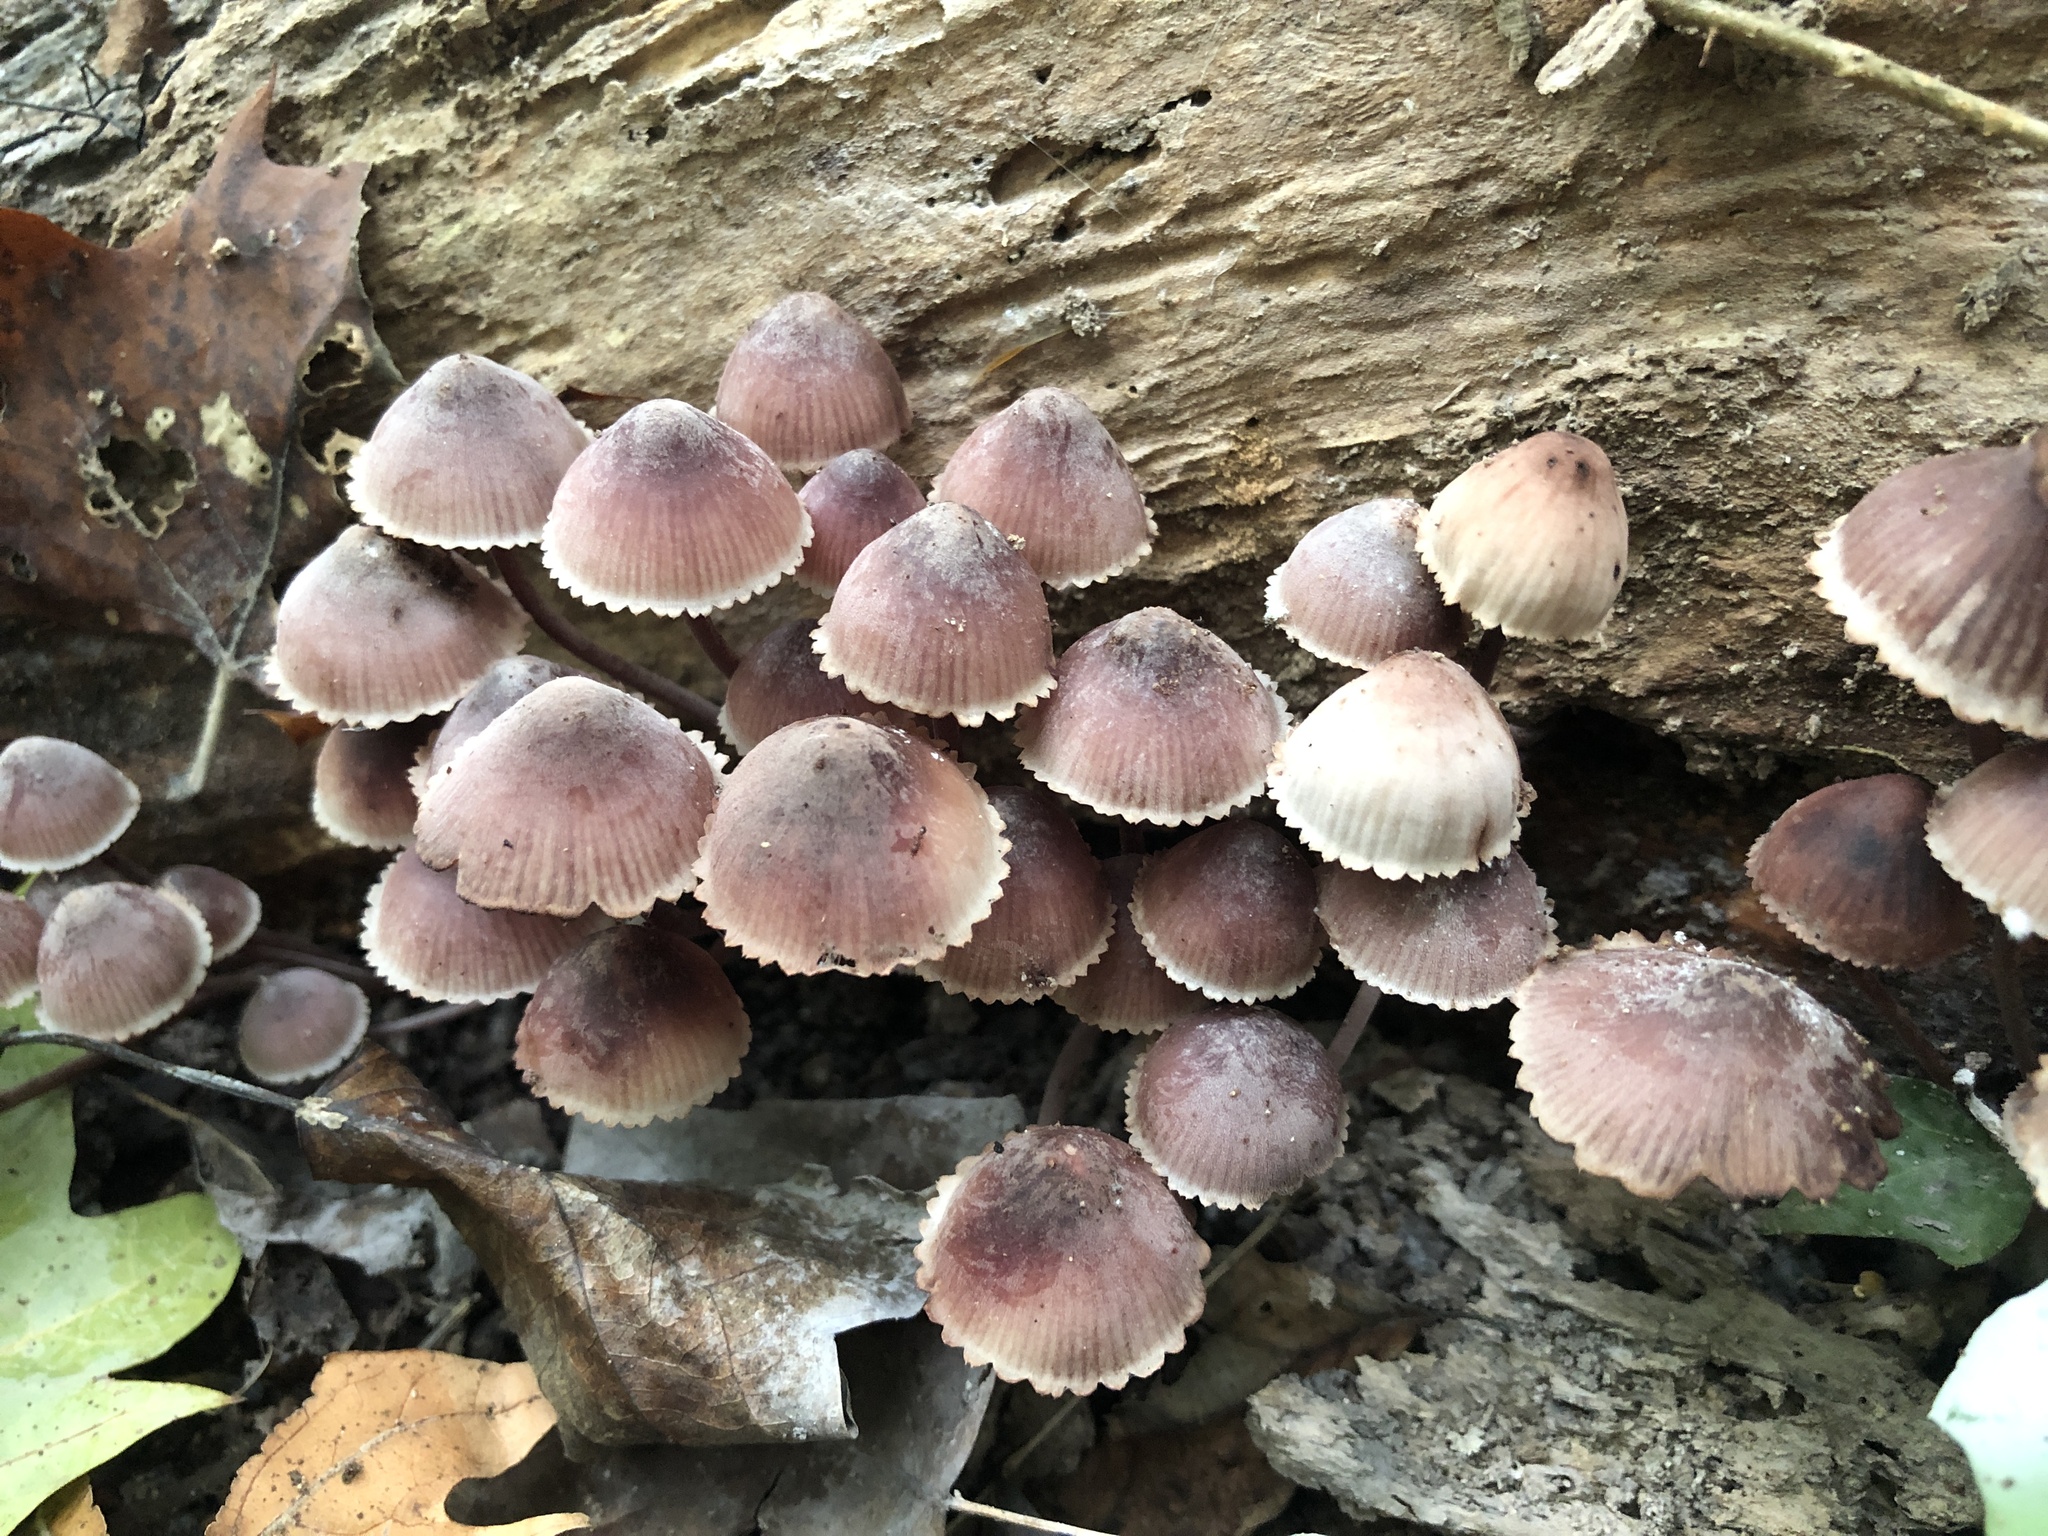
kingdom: Fungi
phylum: Basidiomycota
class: Agaricomycetes
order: Agaricales
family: Mycenaceae
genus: Mycena
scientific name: Mycena haematopus
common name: Burgundydrop bonnet
